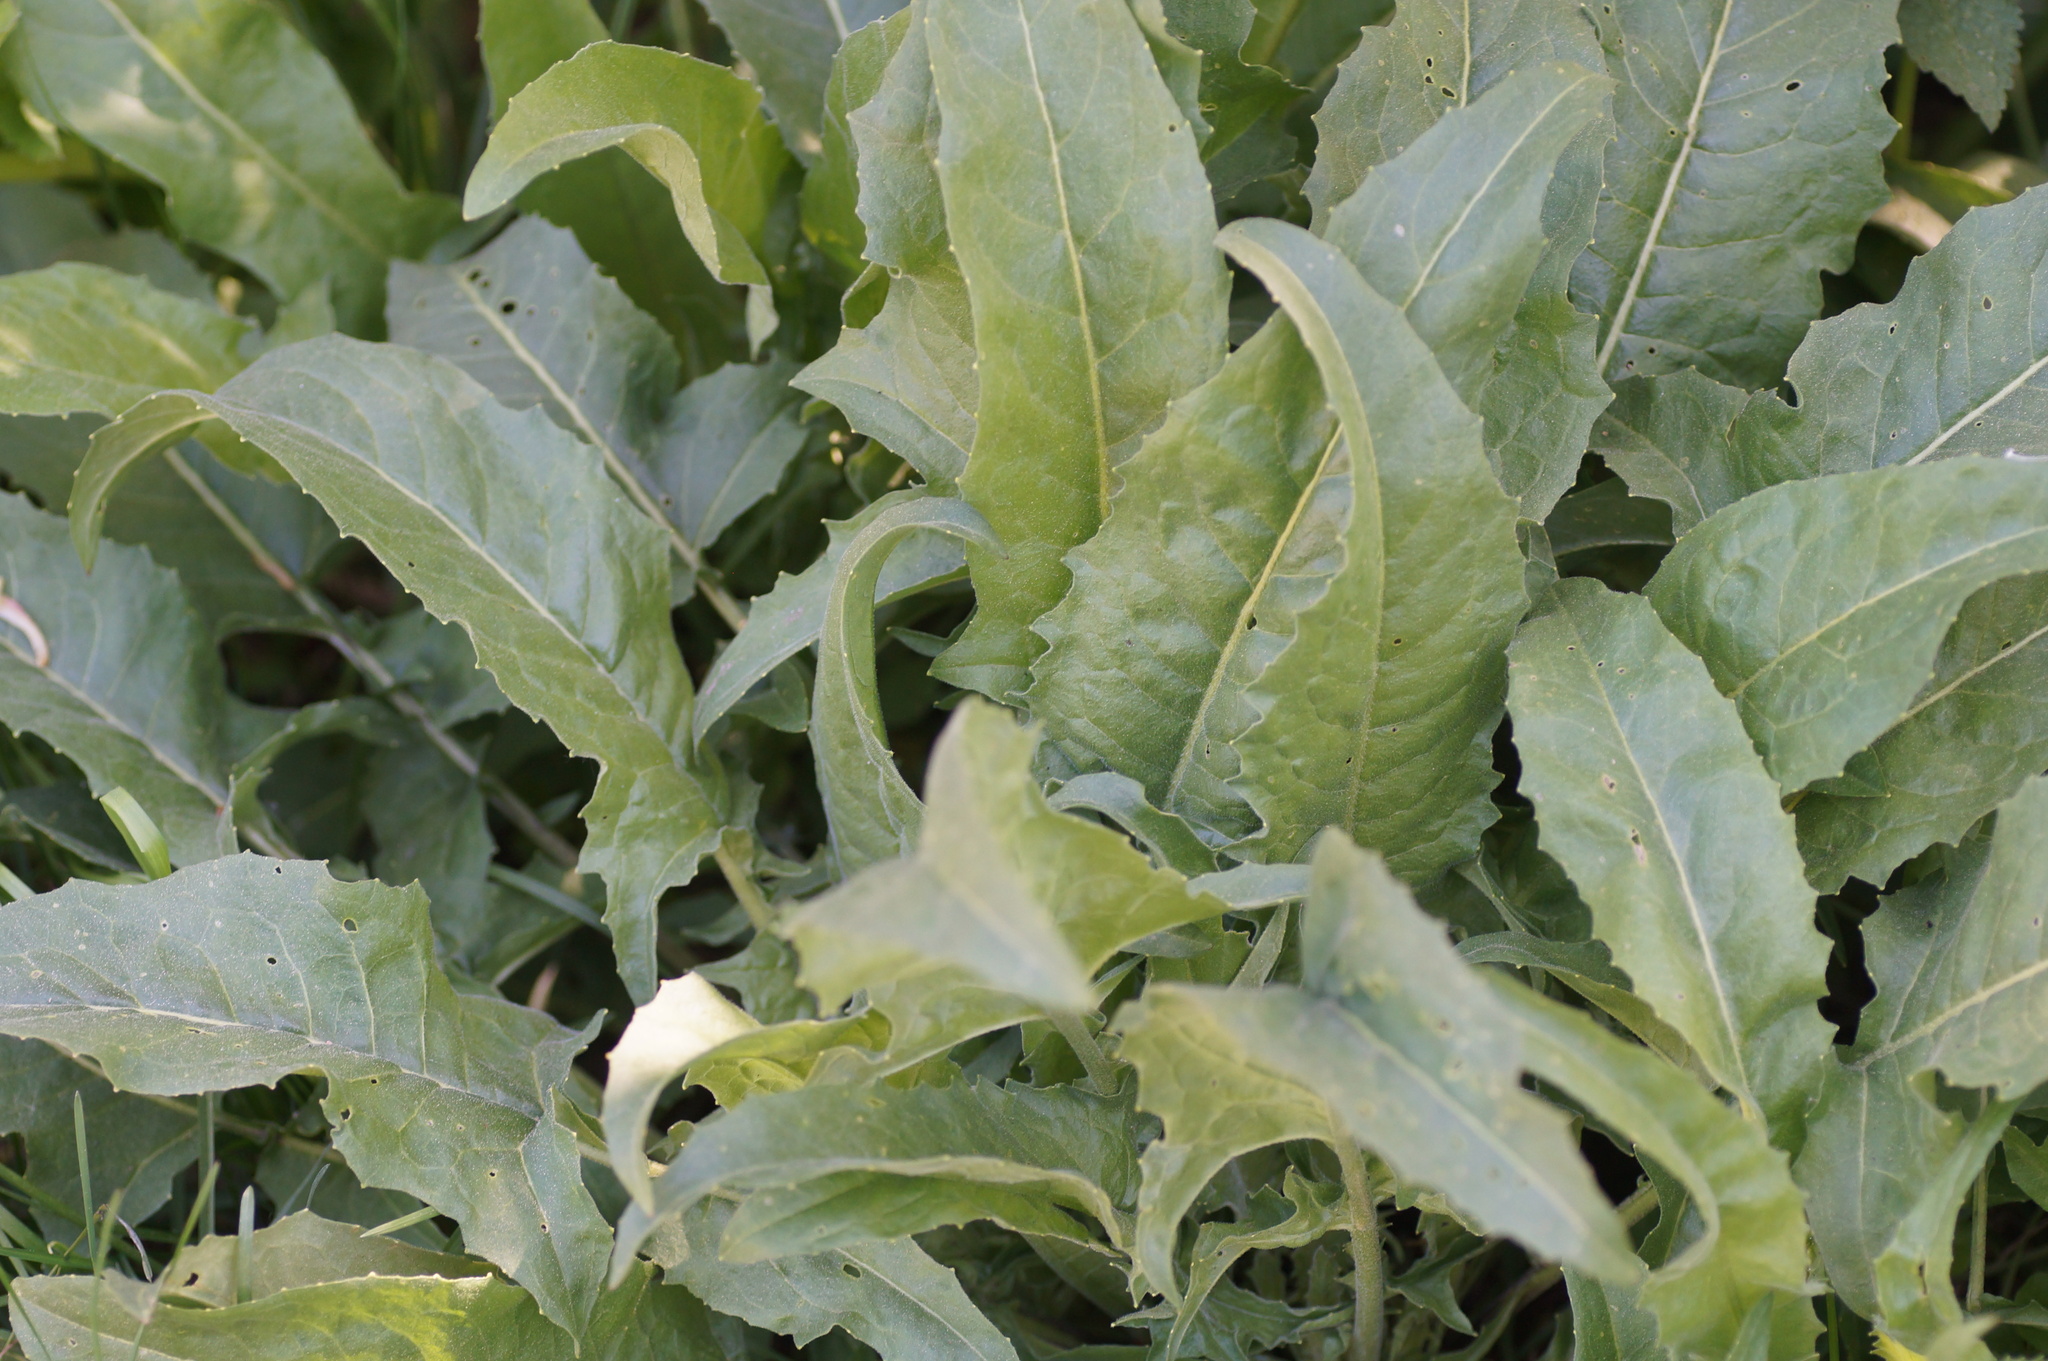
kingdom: Plantae
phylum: Tracheophyta
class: Magnoliopsida
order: Brassicales
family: Brassicaceae
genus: Bunias
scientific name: Bunias orientalis
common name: Warty-cabbage
